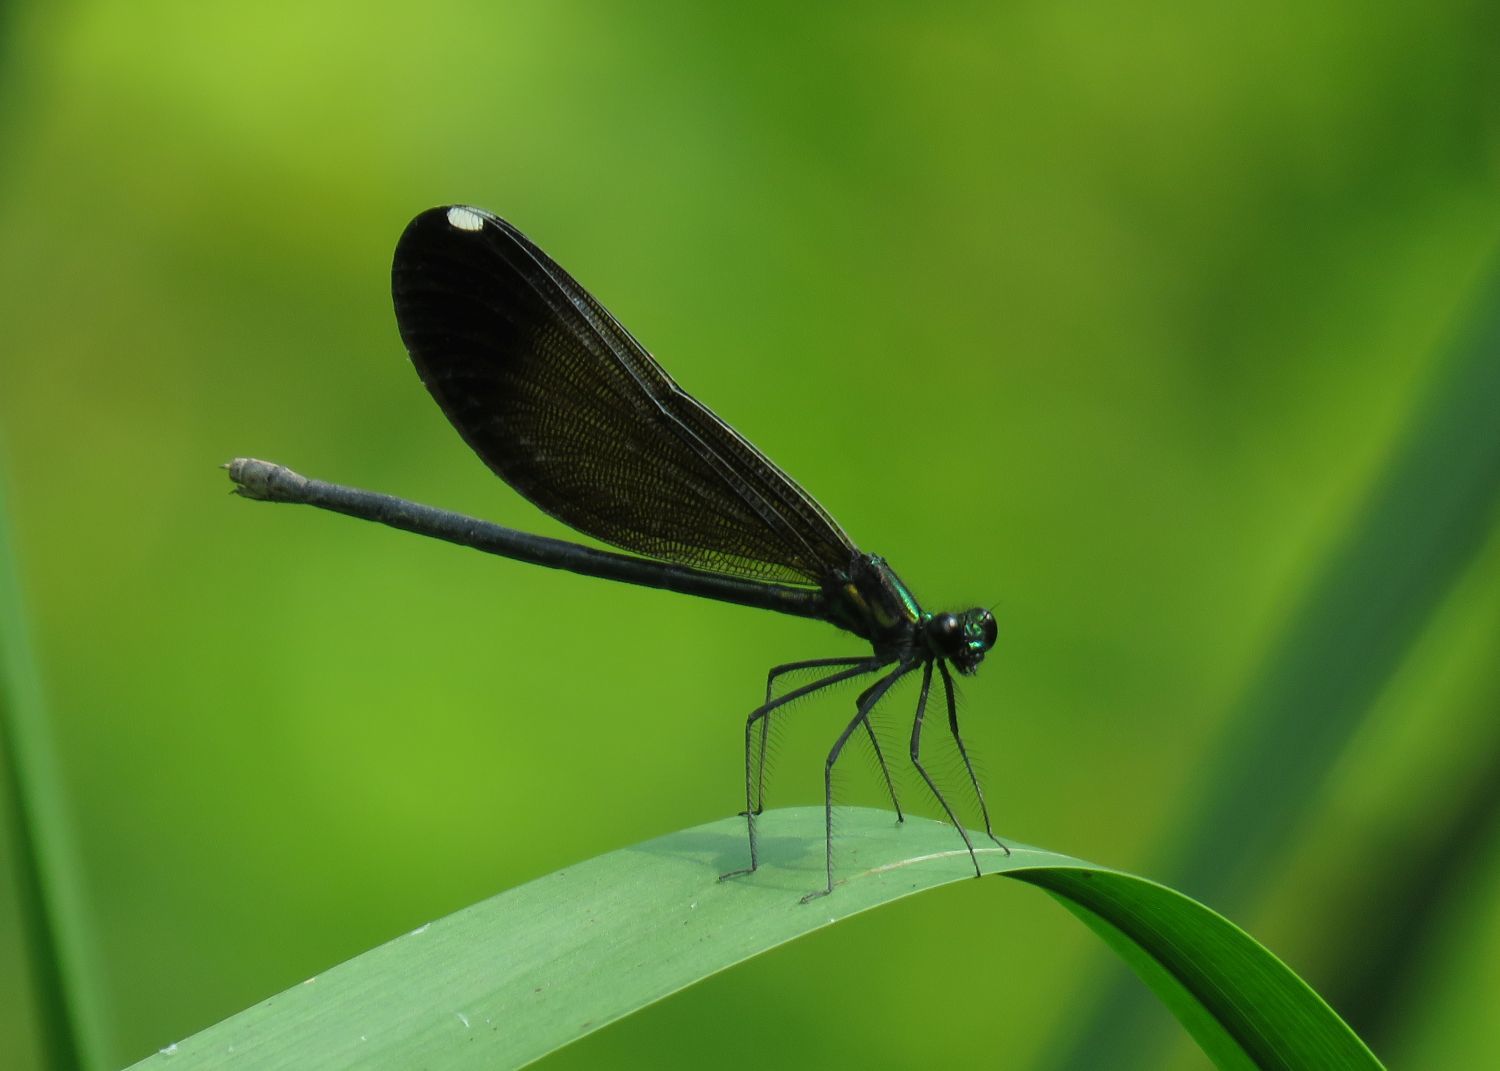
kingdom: Animalia
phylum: Arthropoda
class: Insecta
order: Odonata
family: Calopterygidae
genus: Calopteryx
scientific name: Calopteryx maculata
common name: Ebony jewelwing
